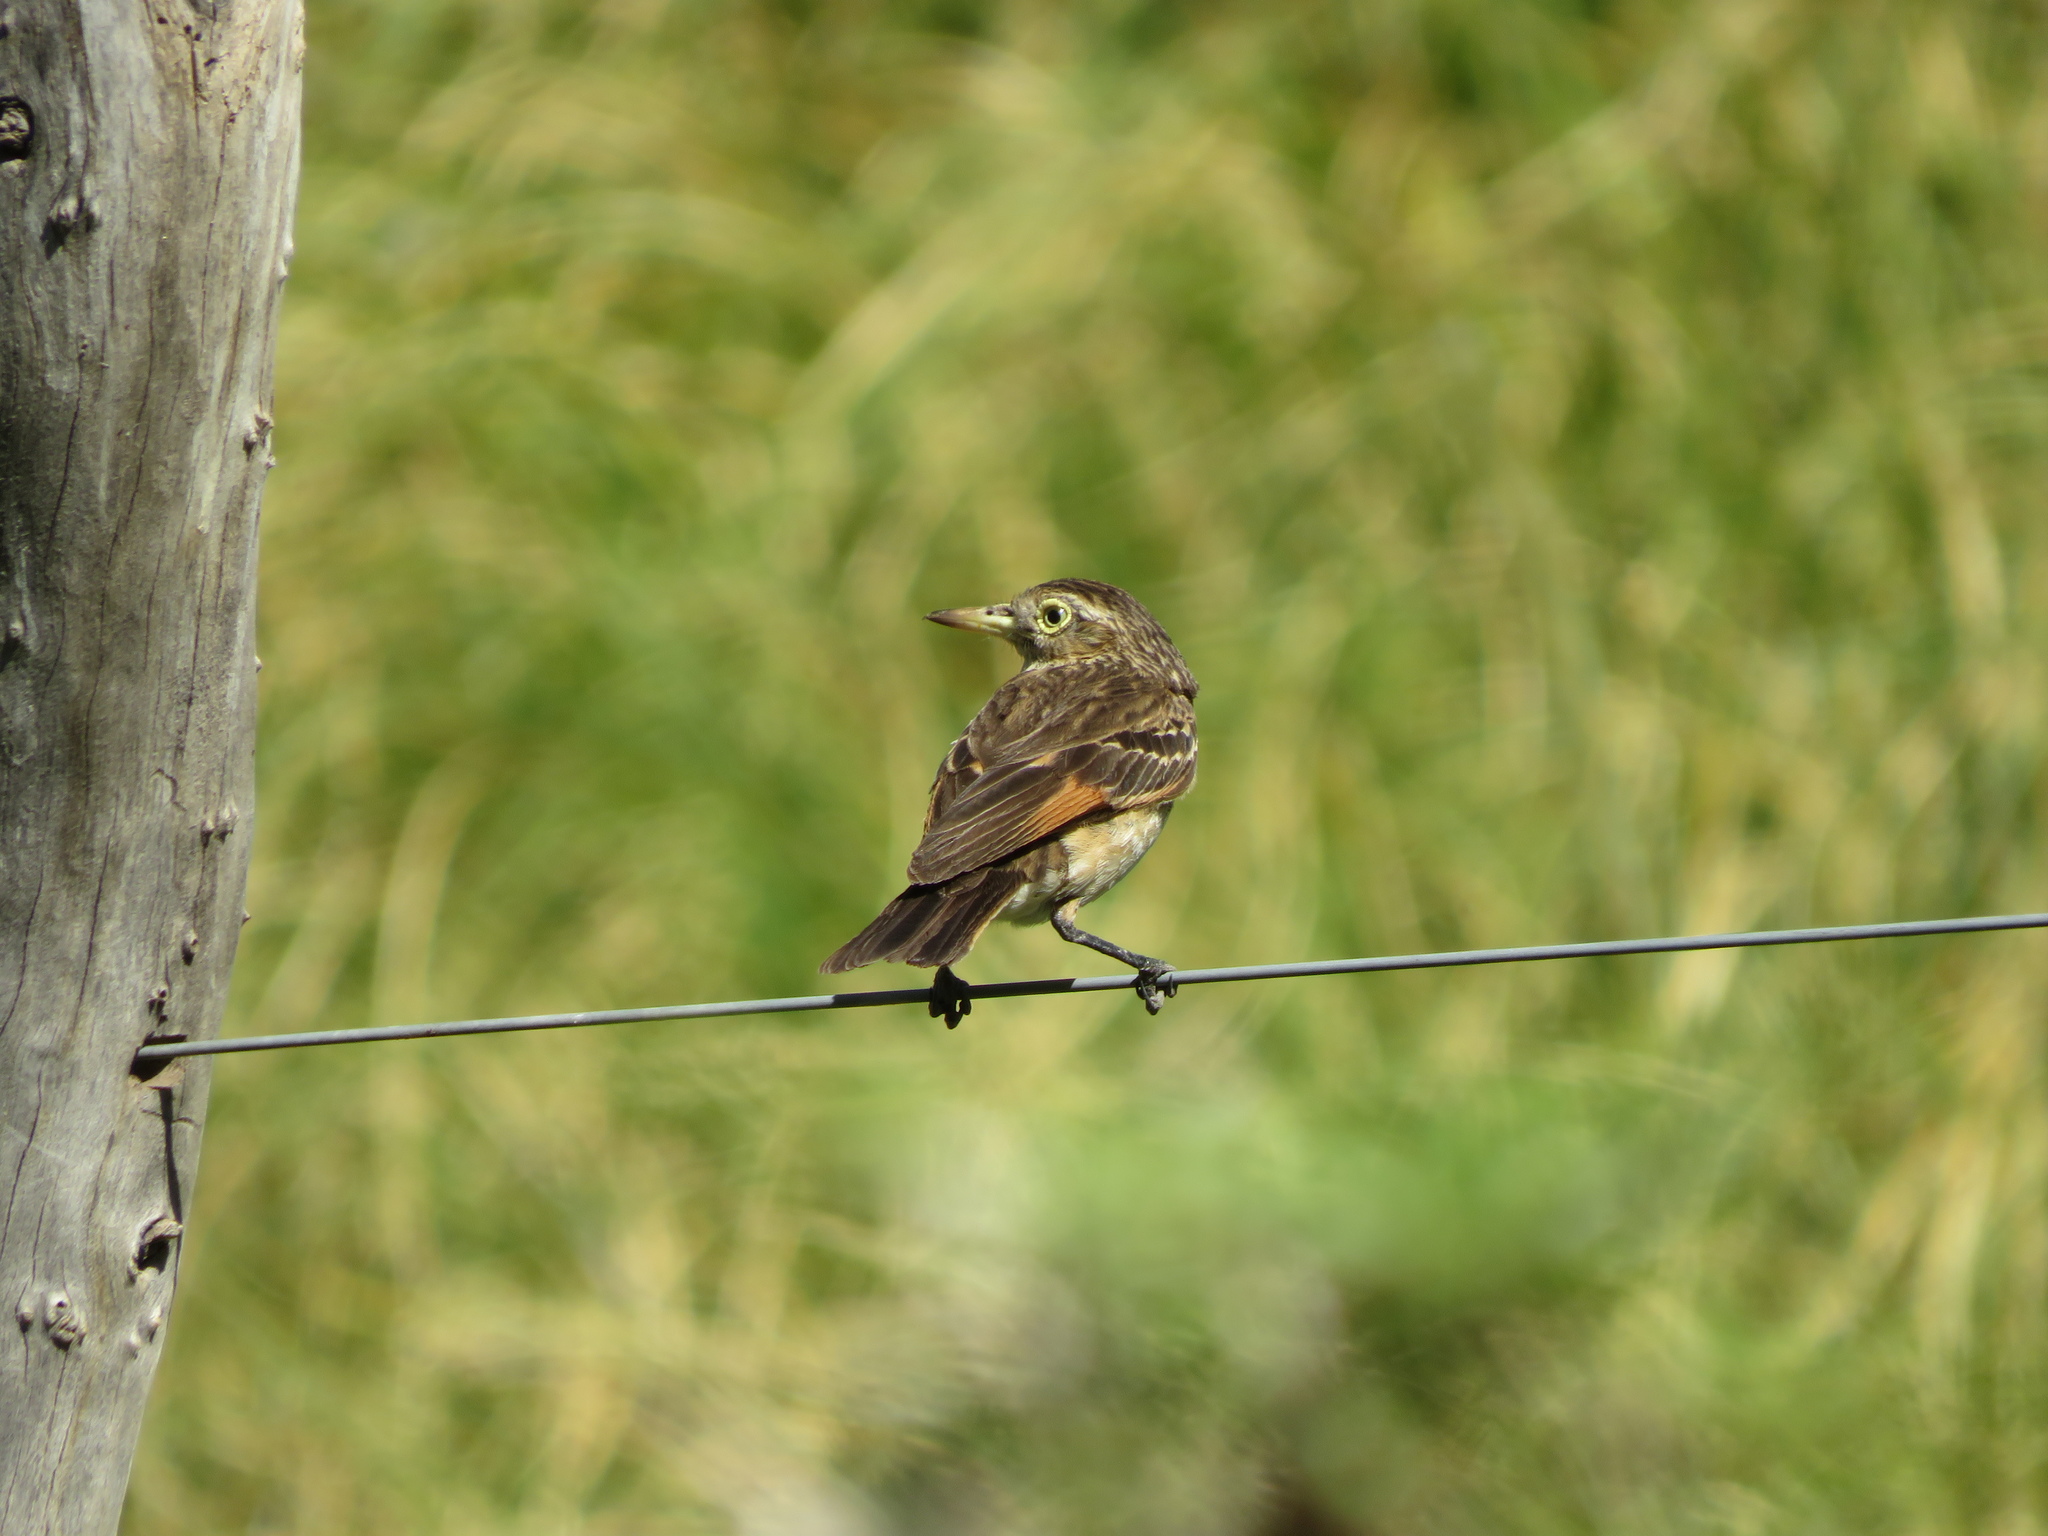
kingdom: Animalia
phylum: Chordata
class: Aves
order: Passeriformes
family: Tyrannidae
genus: Hymenops
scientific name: Hymenops perspicillatus
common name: Spectacled tyrant
